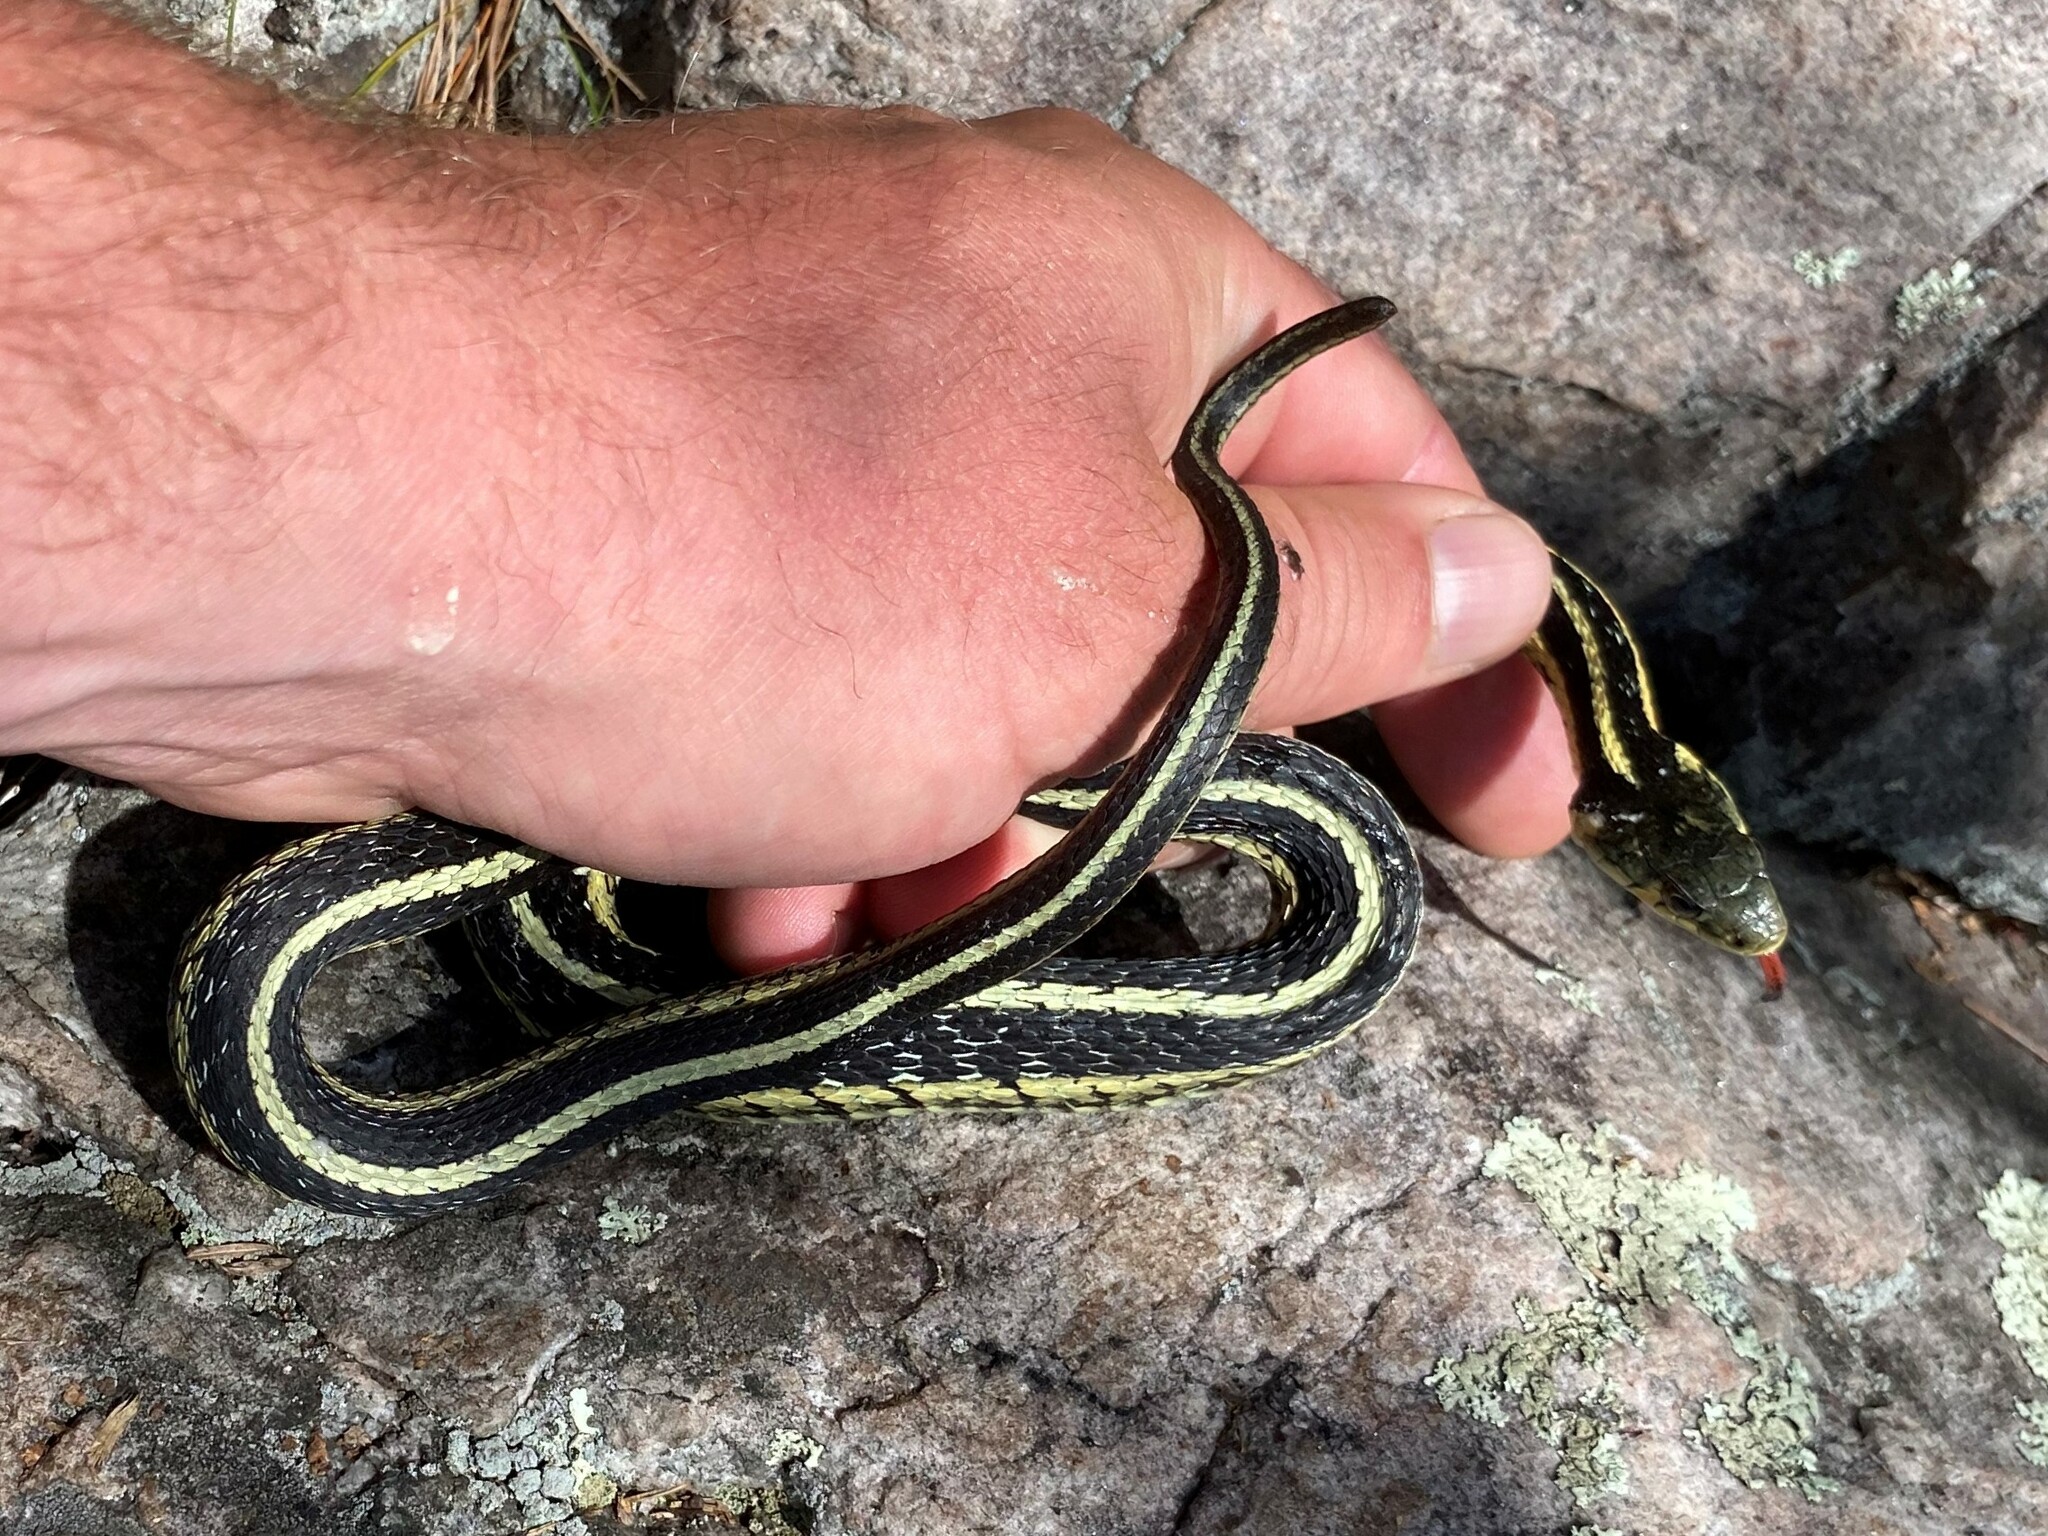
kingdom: Animalia
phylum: Chordata
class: Squamata
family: Colubridae
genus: Thamnophis
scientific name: Thamnophis sirtalis
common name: Common garter snake
